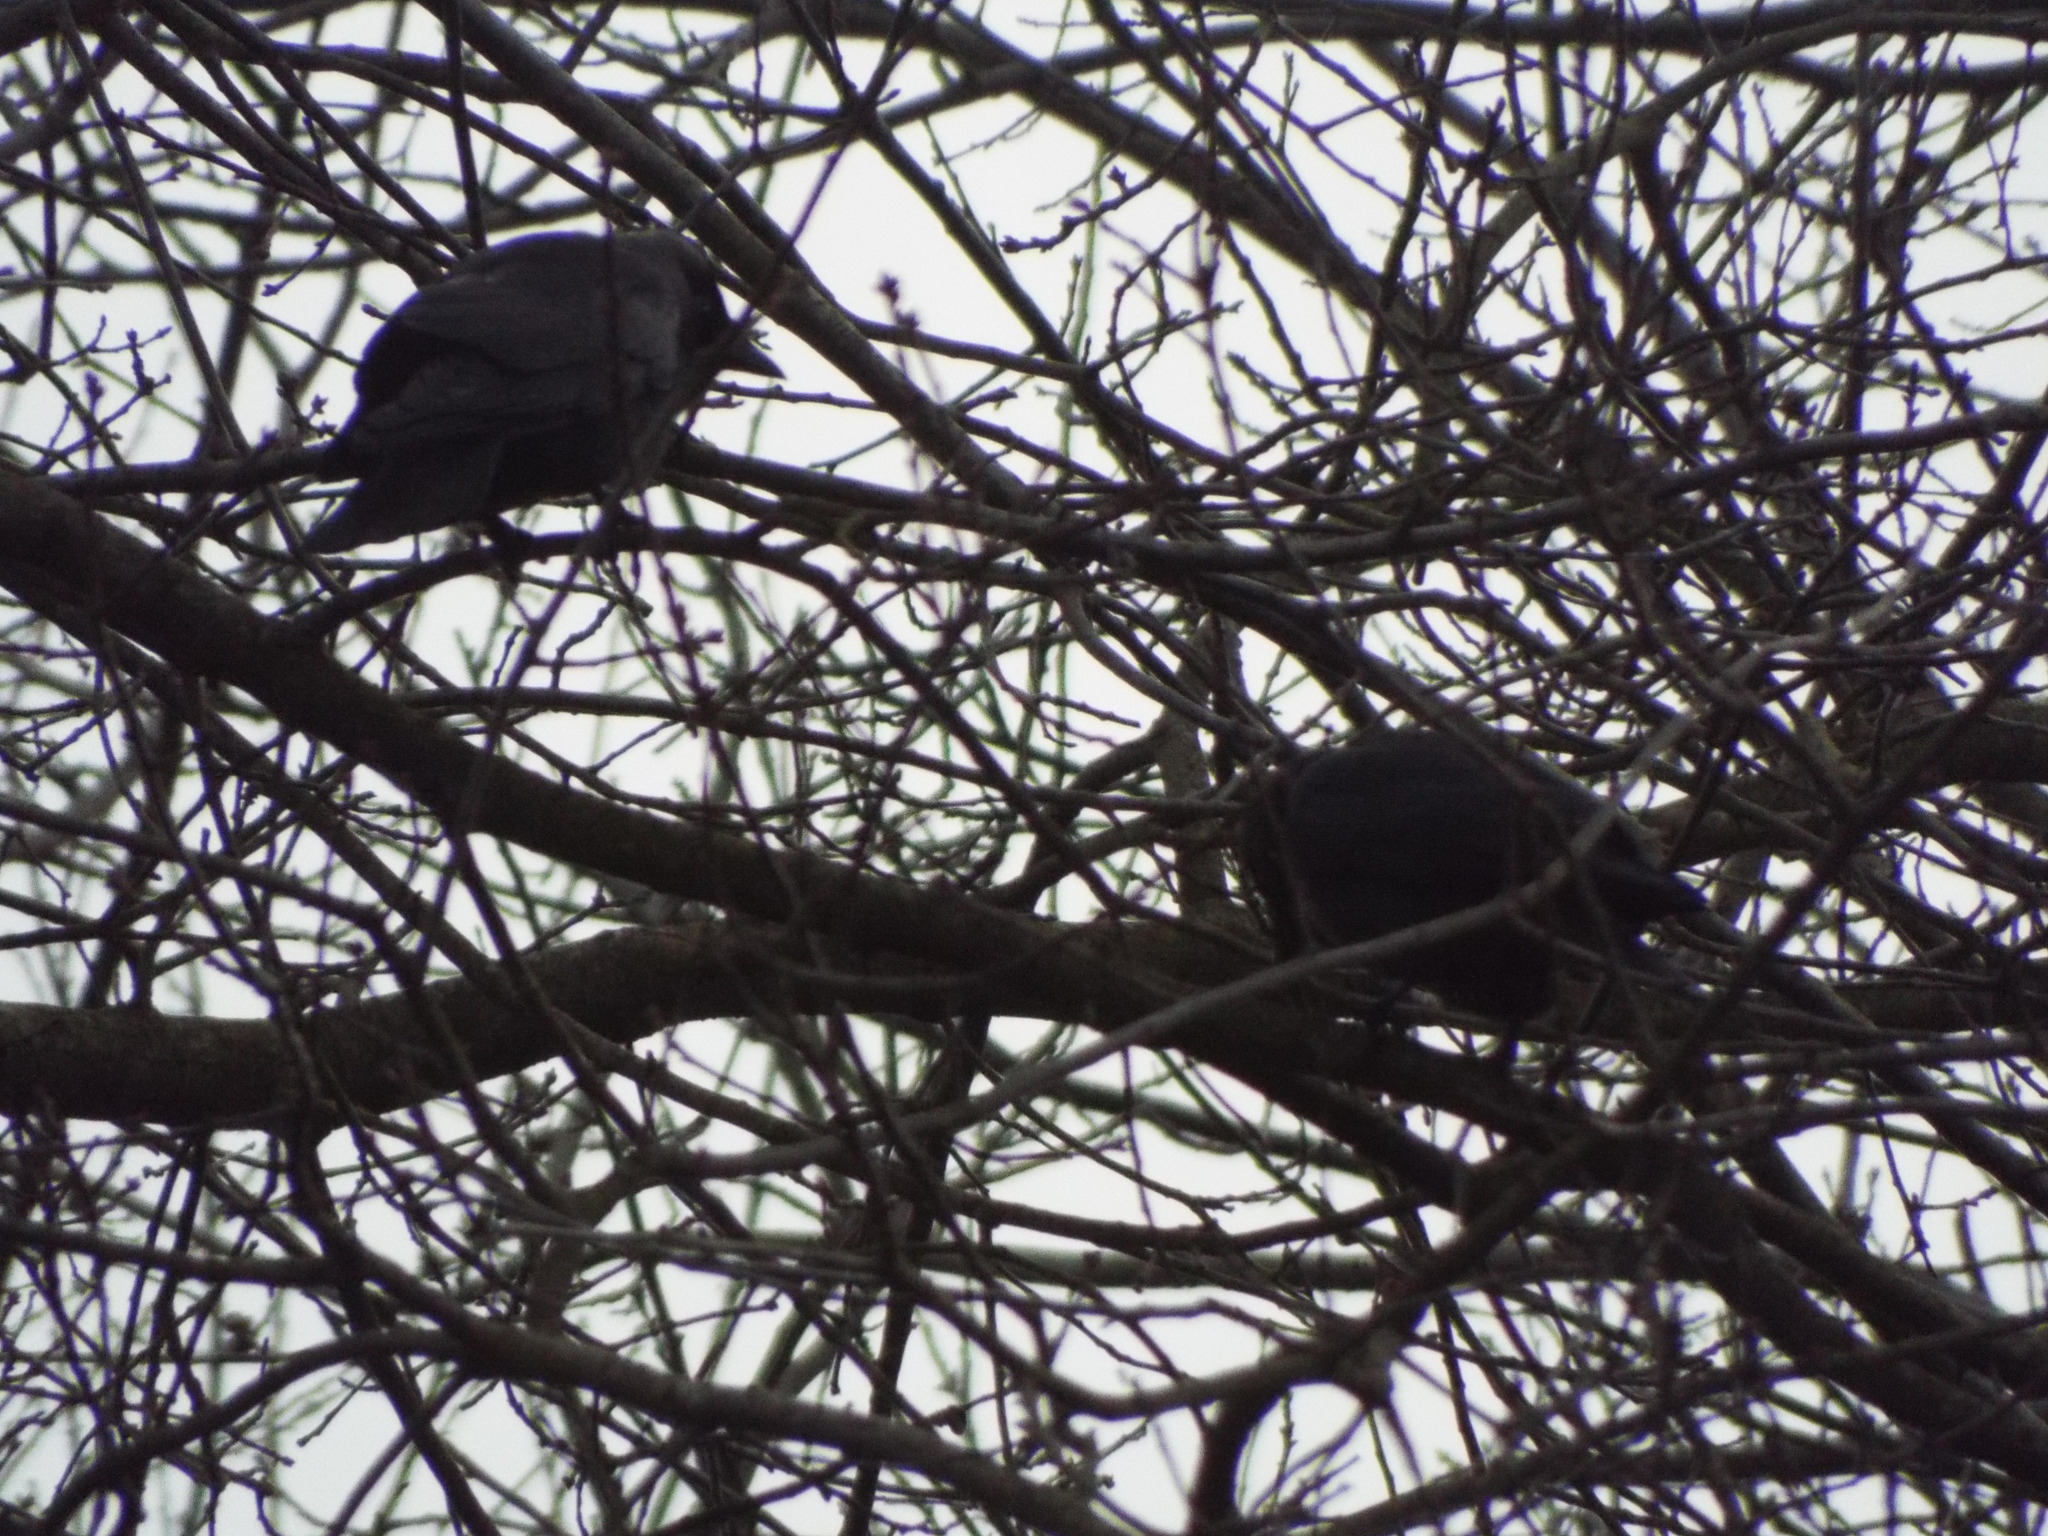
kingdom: Animalia
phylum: Chordata
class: Aves
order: Passeriformes
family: Corvidae
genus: Coloeus
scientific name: Coloeus monedula
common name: Western jackdaw
